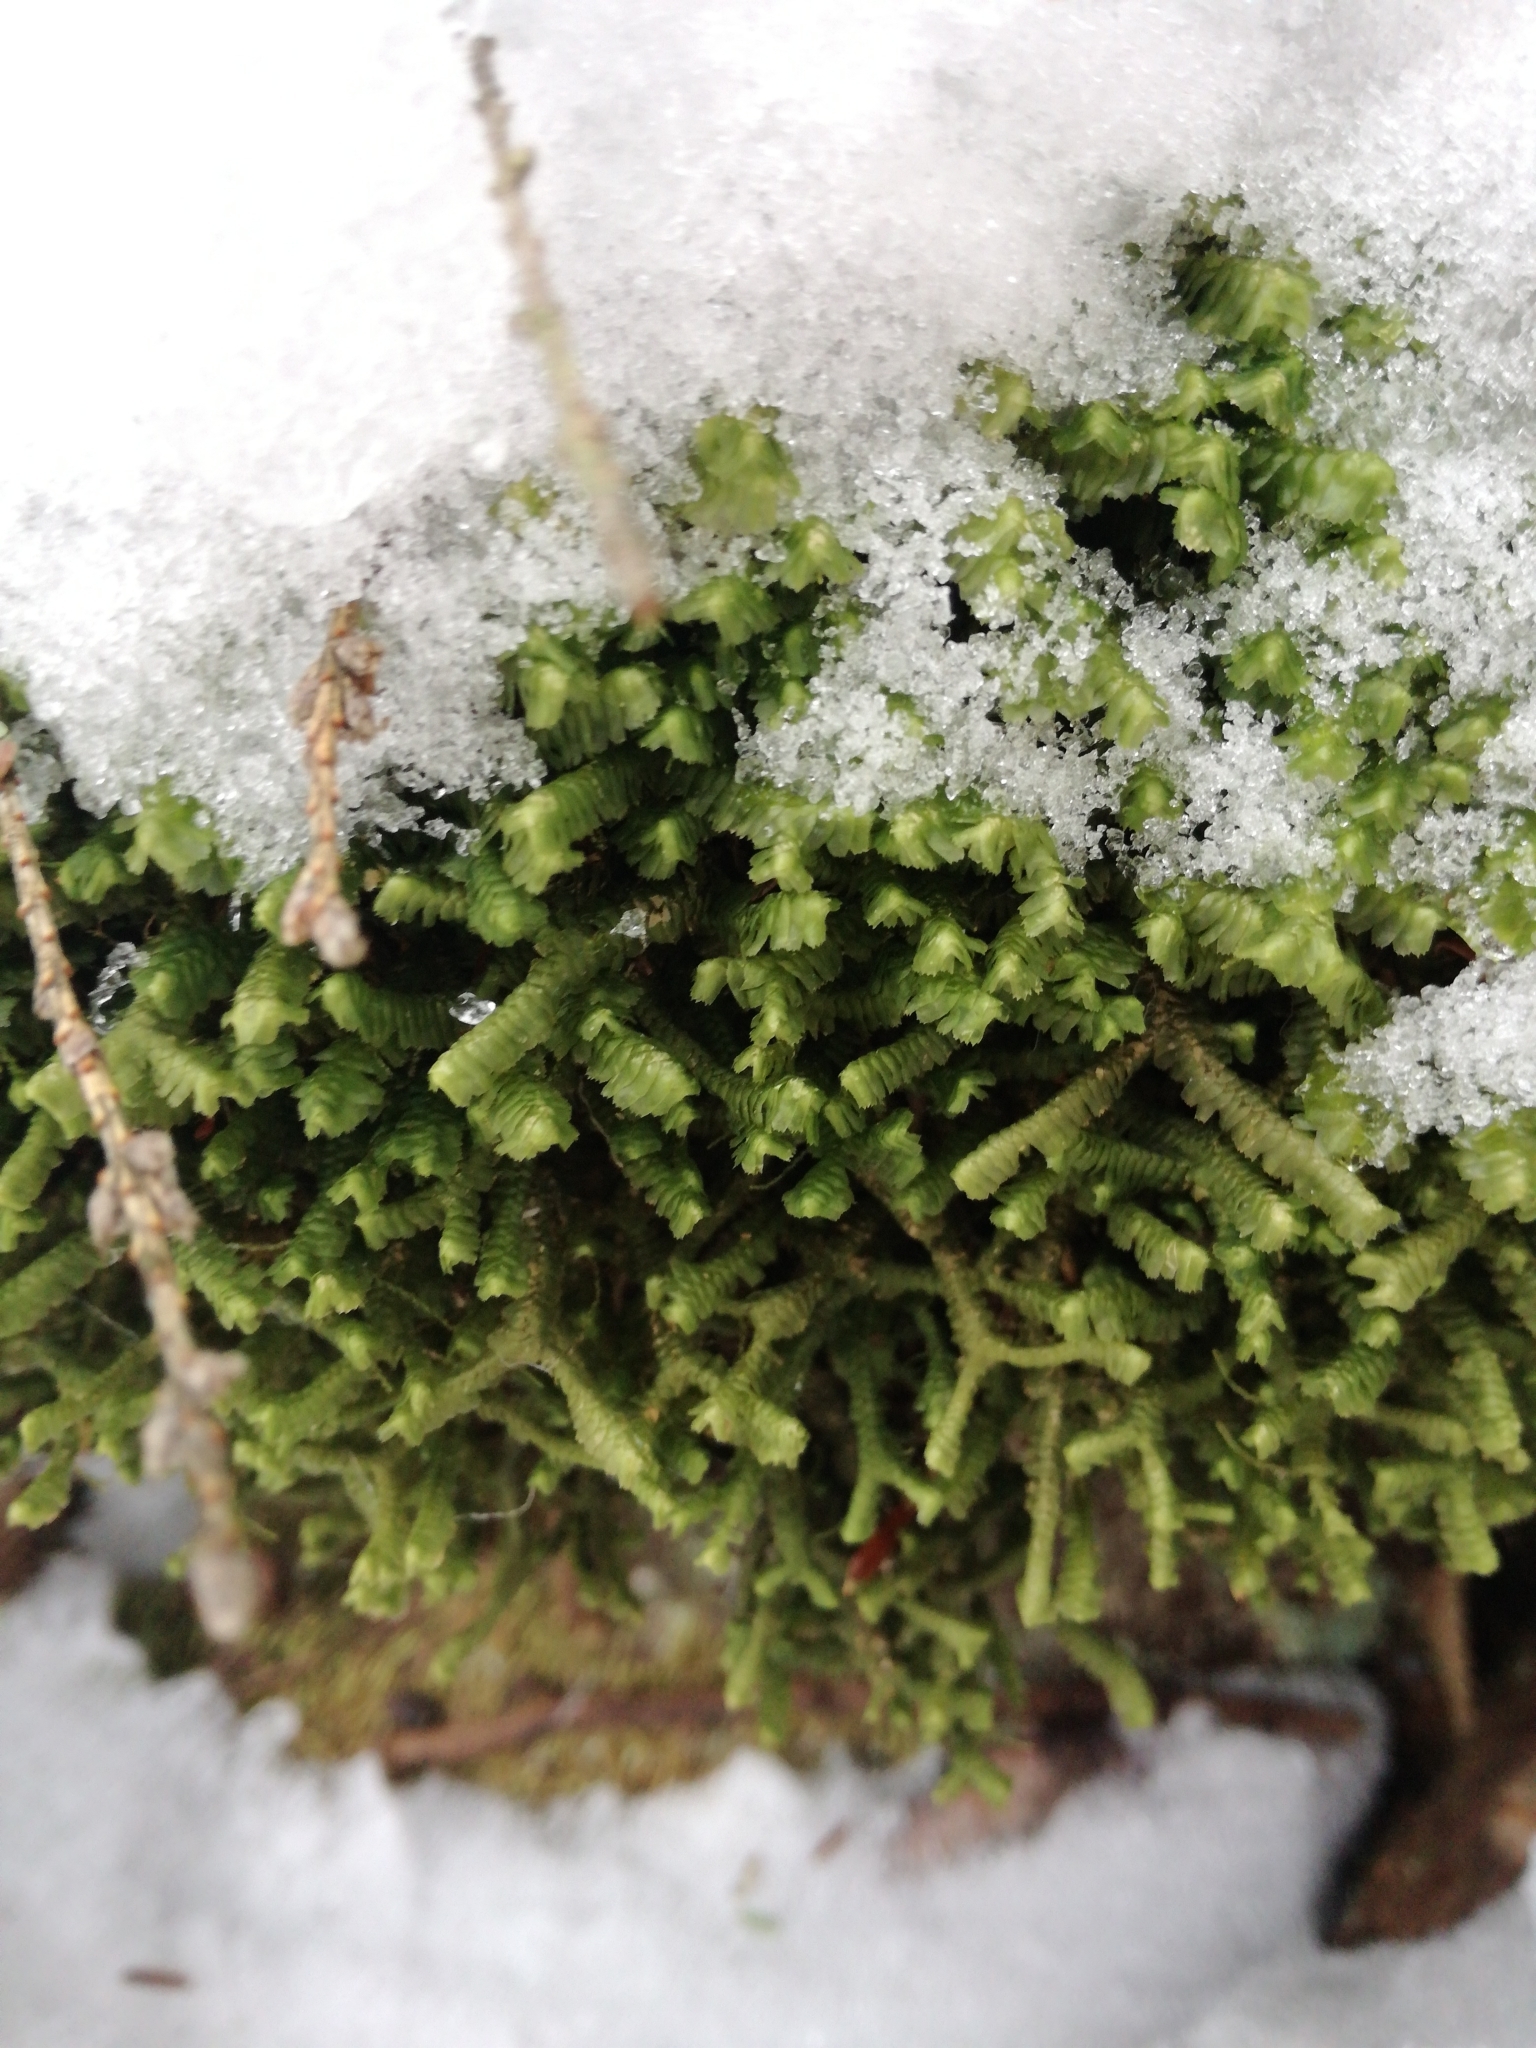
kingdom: Plantae
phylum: Marchantiophyta
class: Jungermanniopsida
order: Jungermanniales
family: Lepidoziaceae
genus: Bazzania
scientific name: Bazzania trilobata
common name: Three-lobed whipwort
